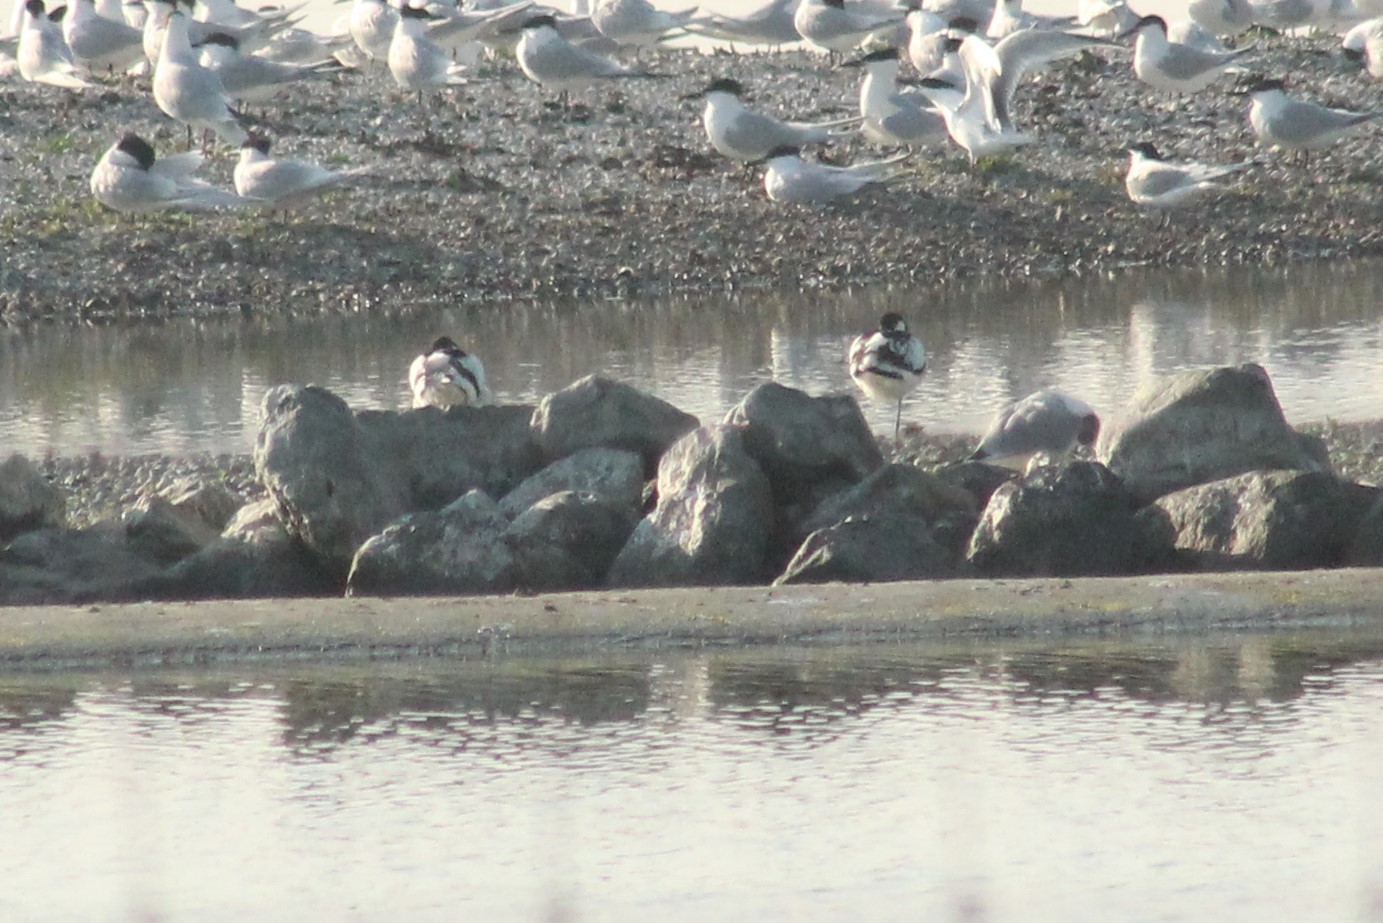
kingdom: Animalia
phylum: Chordata
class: Aves
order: Charadriiformes
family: Recurvirostridae
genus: Recurvirostra
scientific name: Recurvirostra avosetta
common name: Pied avocet
